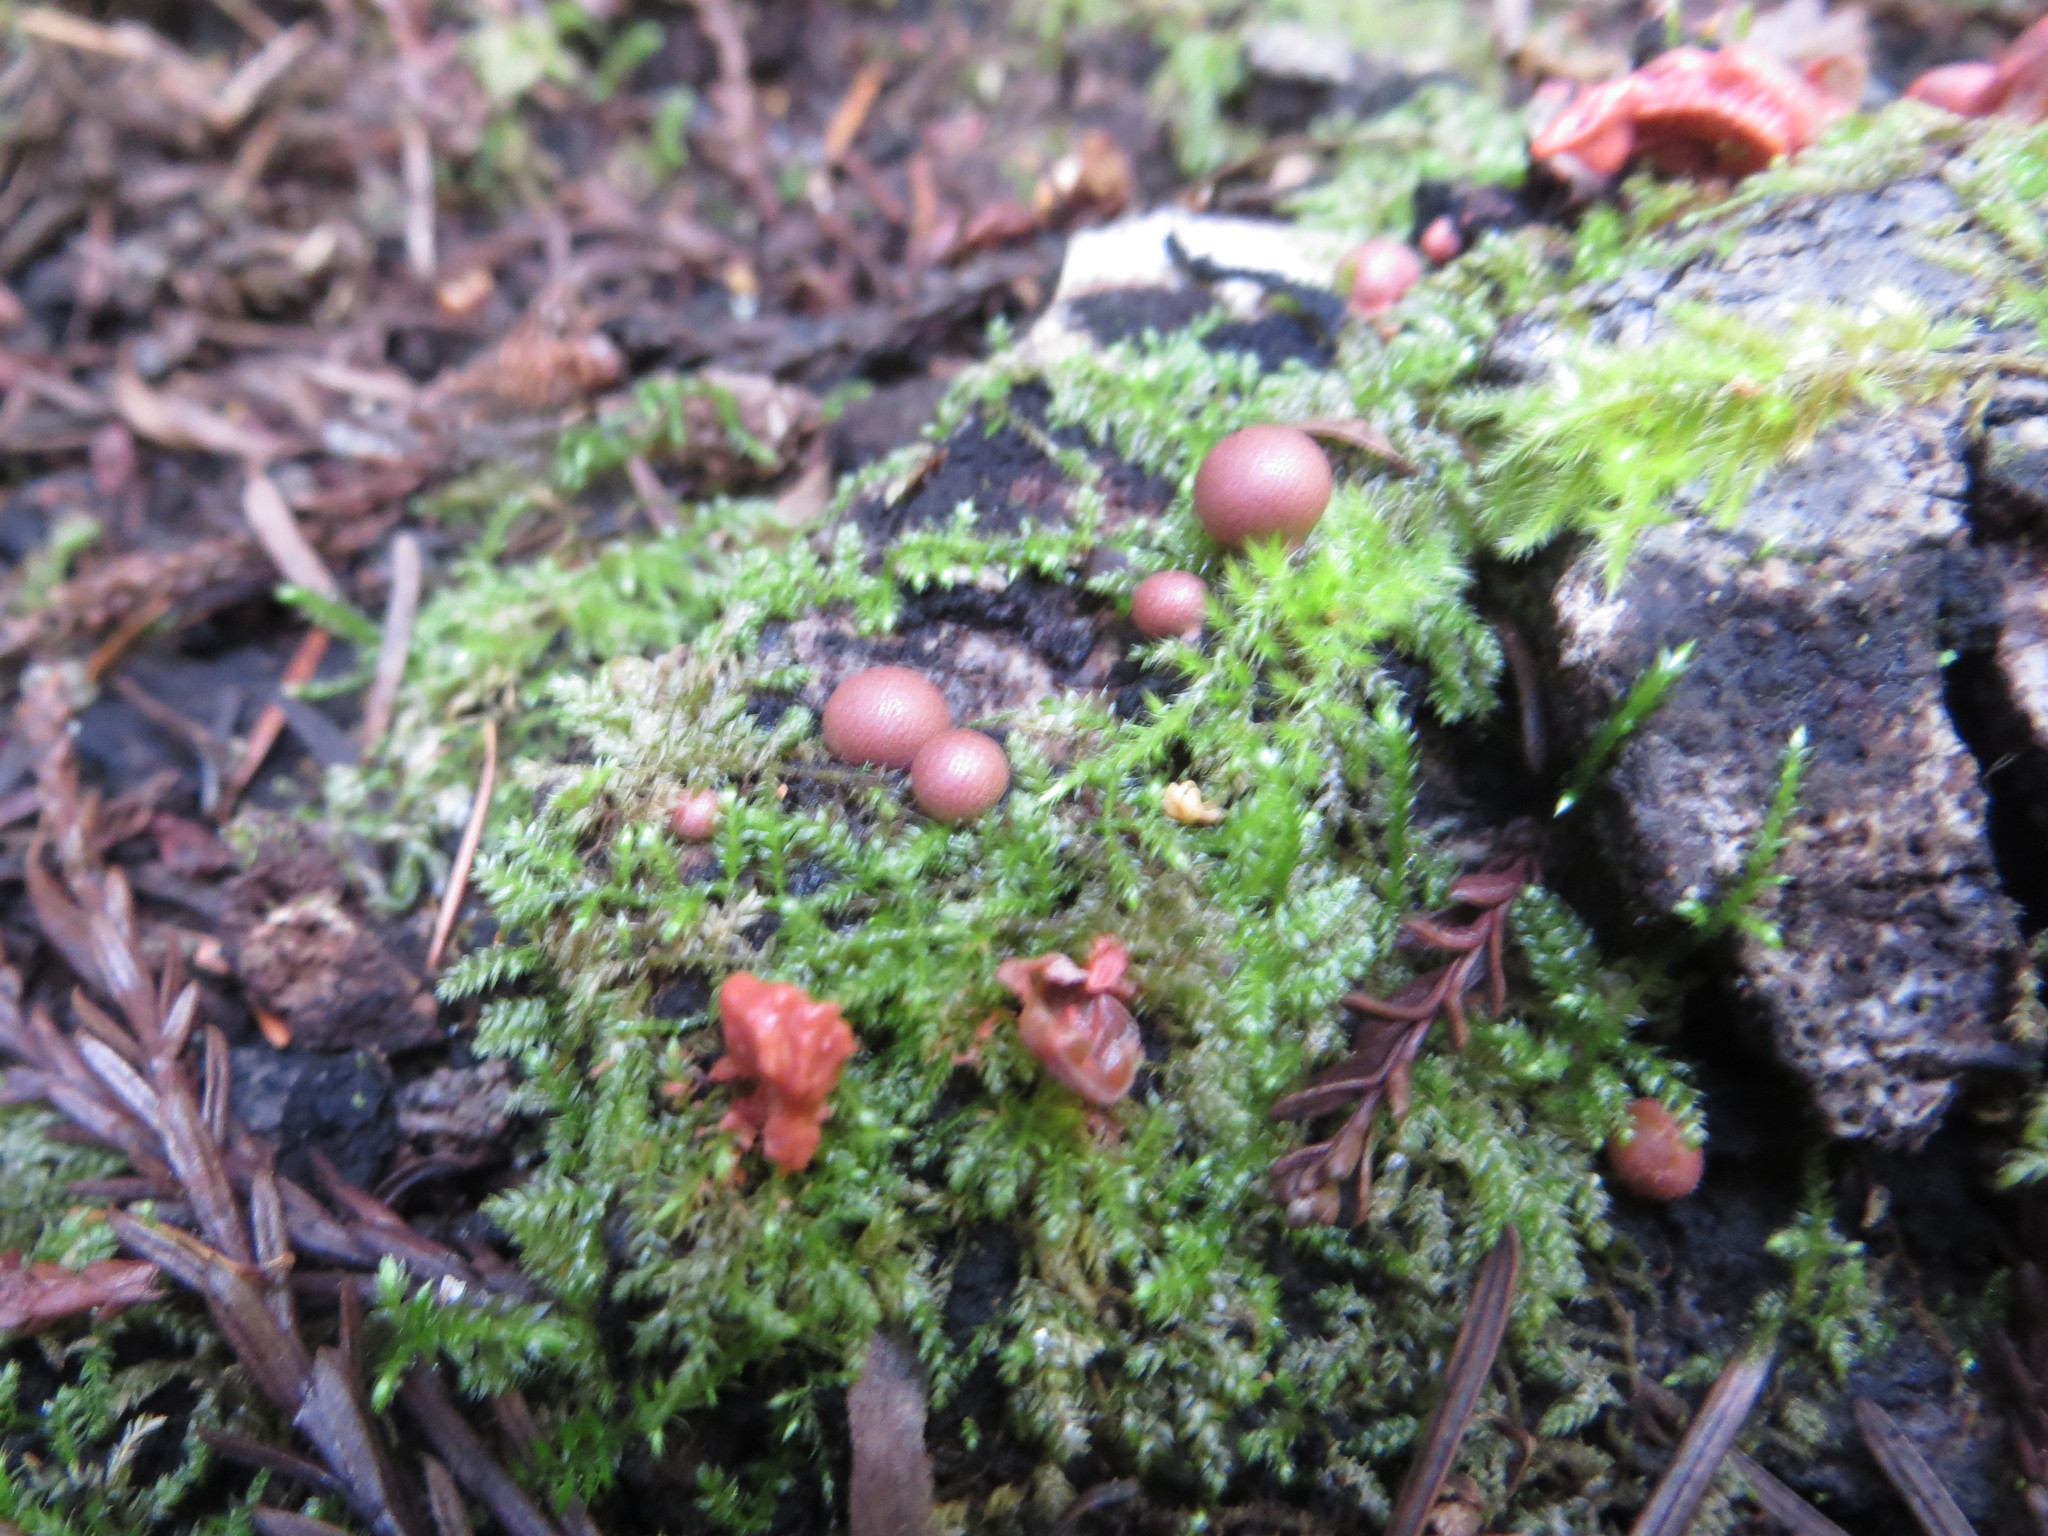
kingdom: Protozoa
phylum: Mycetozoa
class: Myxomycetes
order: Cribrariales
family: Tubiferaceae
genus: Lycogala
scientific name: Lycogala epidendrum
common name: Wolf's milk
